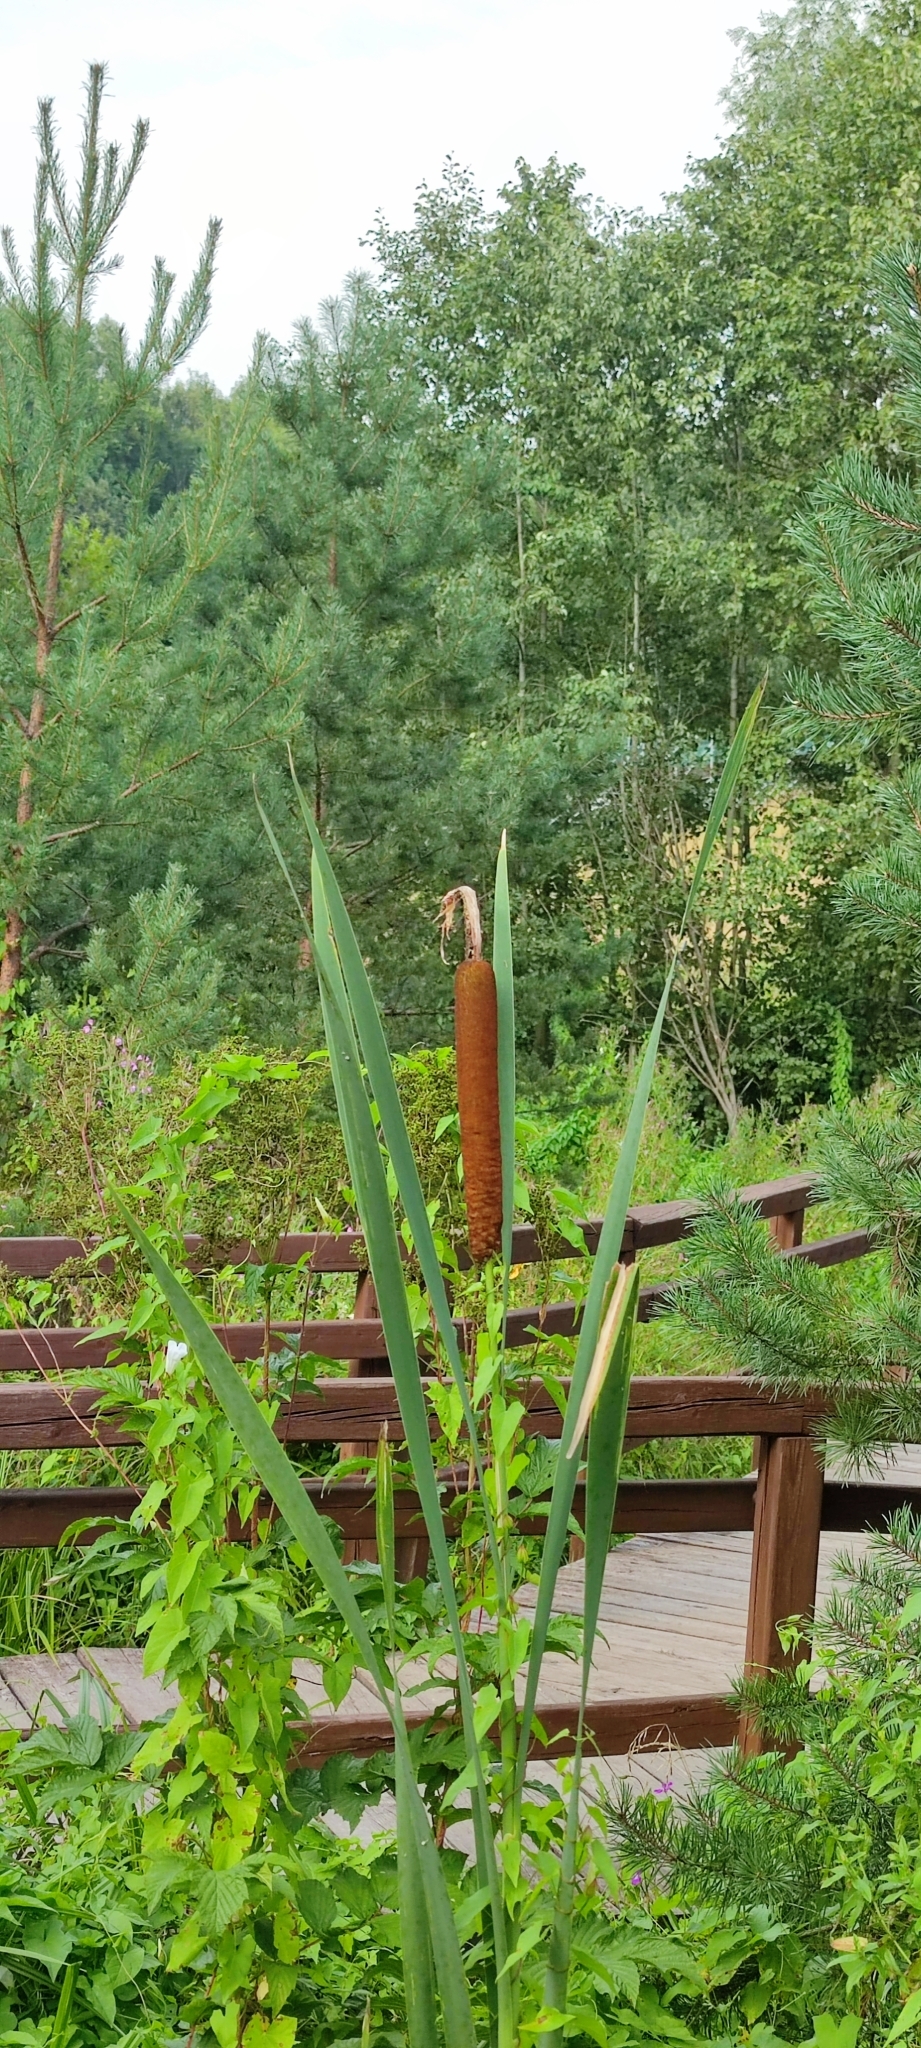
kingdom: Plantae
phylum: Tracheophyta
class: Liliopsida
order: Poales
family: Typhaceae
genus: Typha
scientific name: Typha latifolia
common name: Broadleaf cattail
